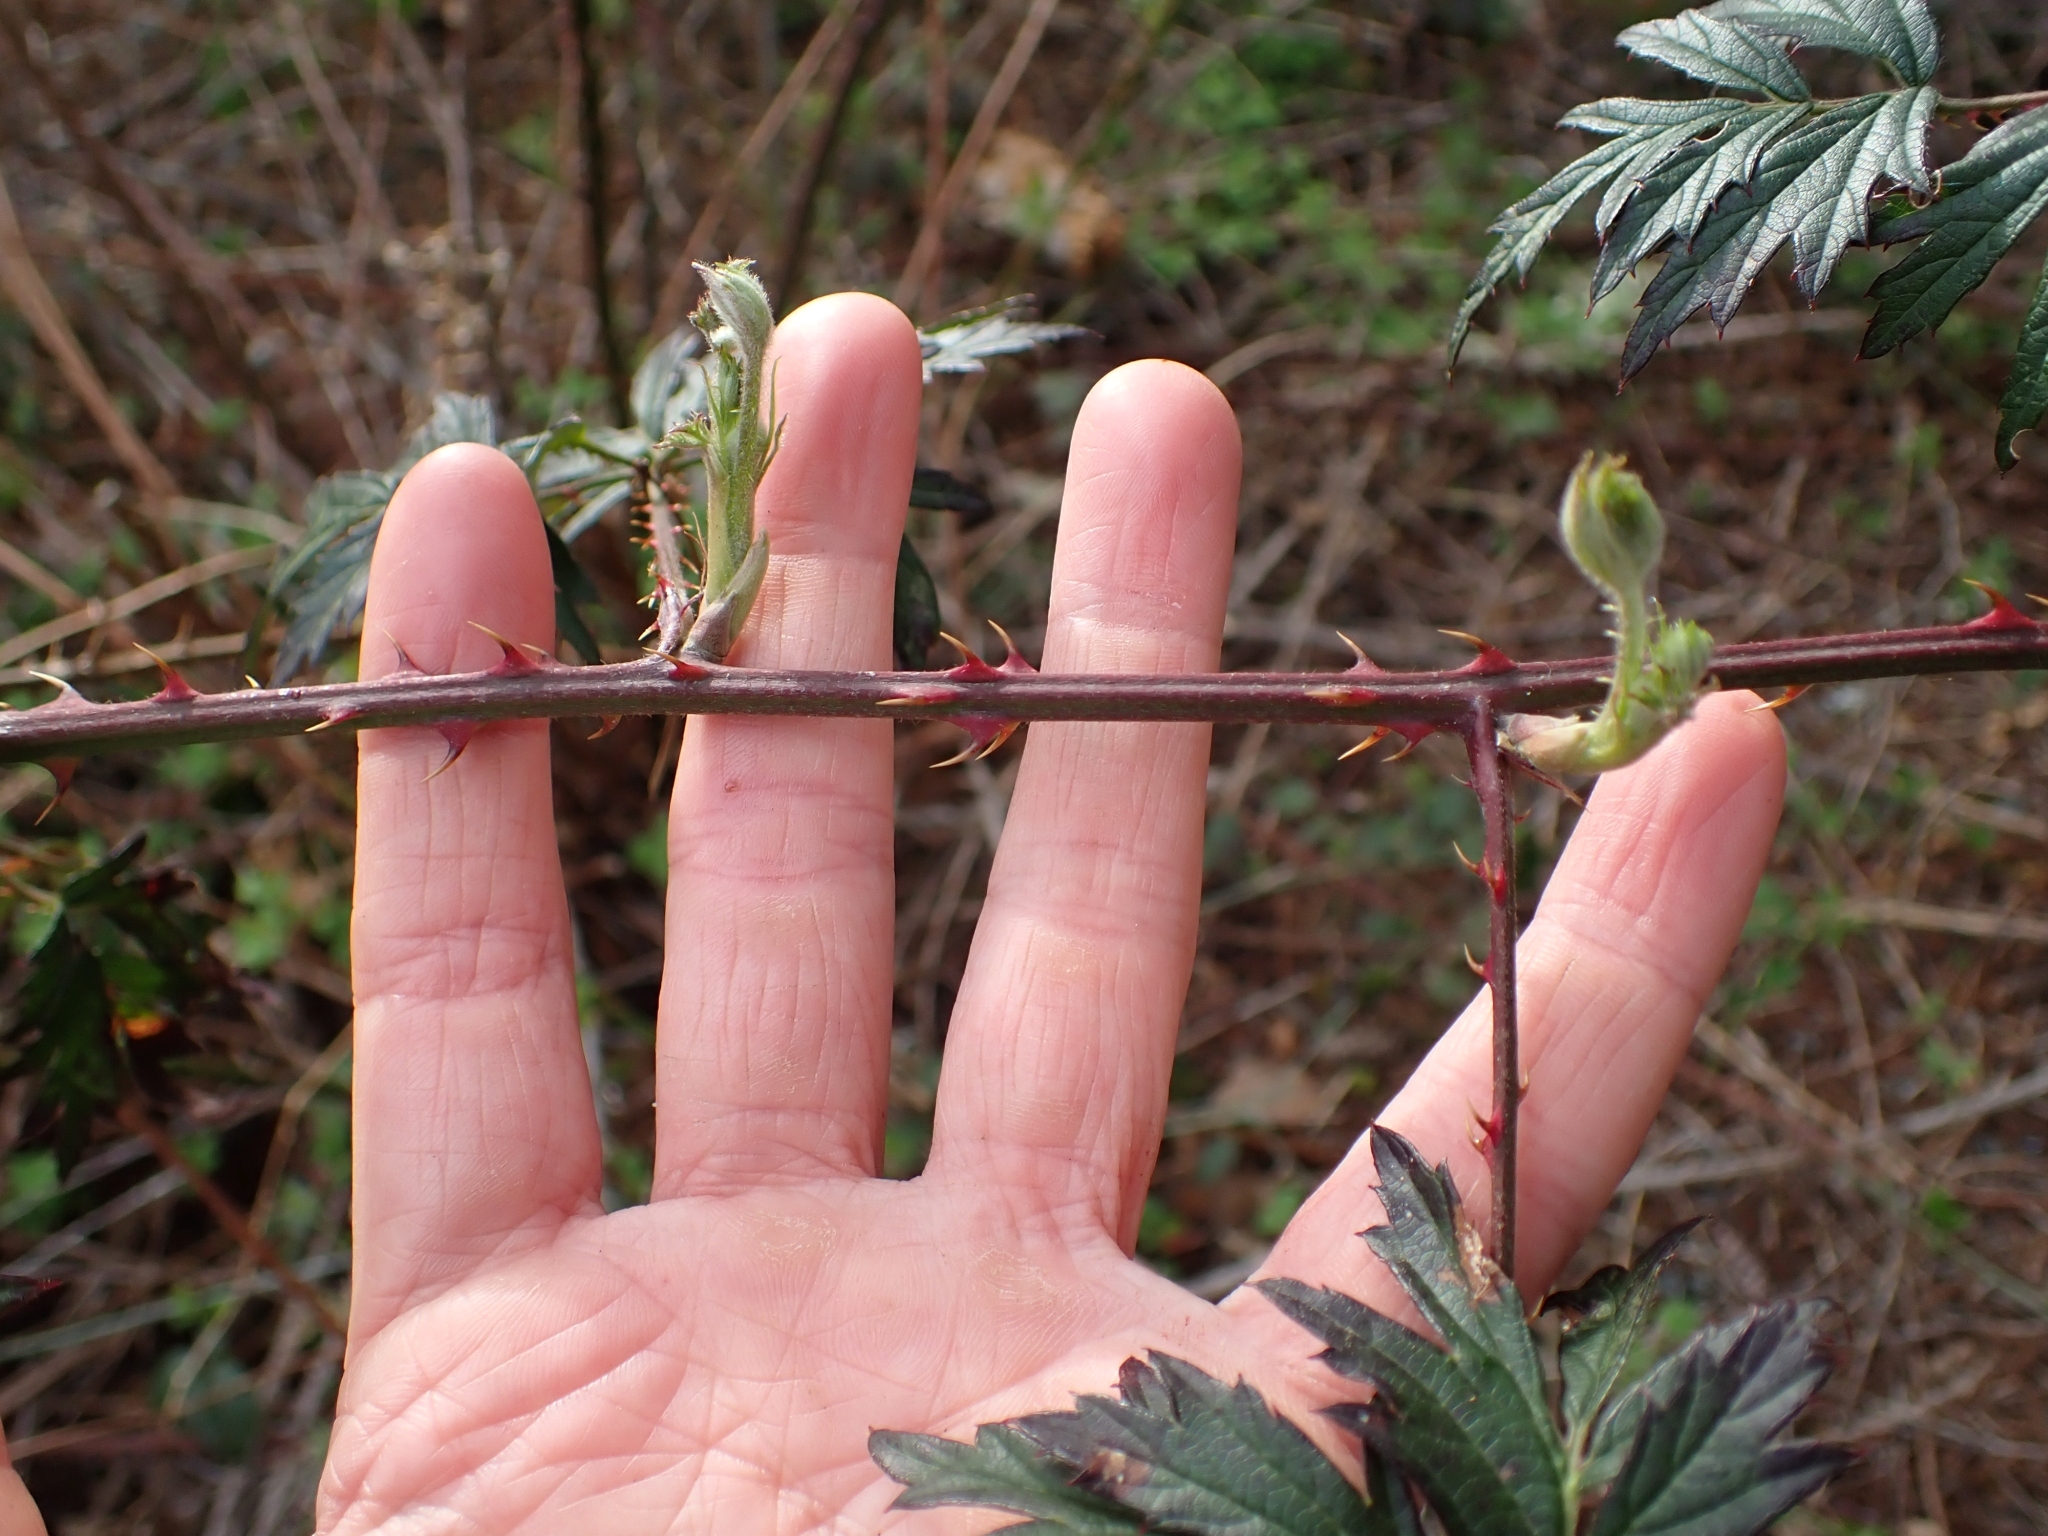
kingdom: Plantae
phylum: Tracheophyta
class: Magnoliopsida
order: Rosales
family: Rosaceae
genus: Rubus
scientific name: Rubus laciniatus
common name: Evergreen blackberry
